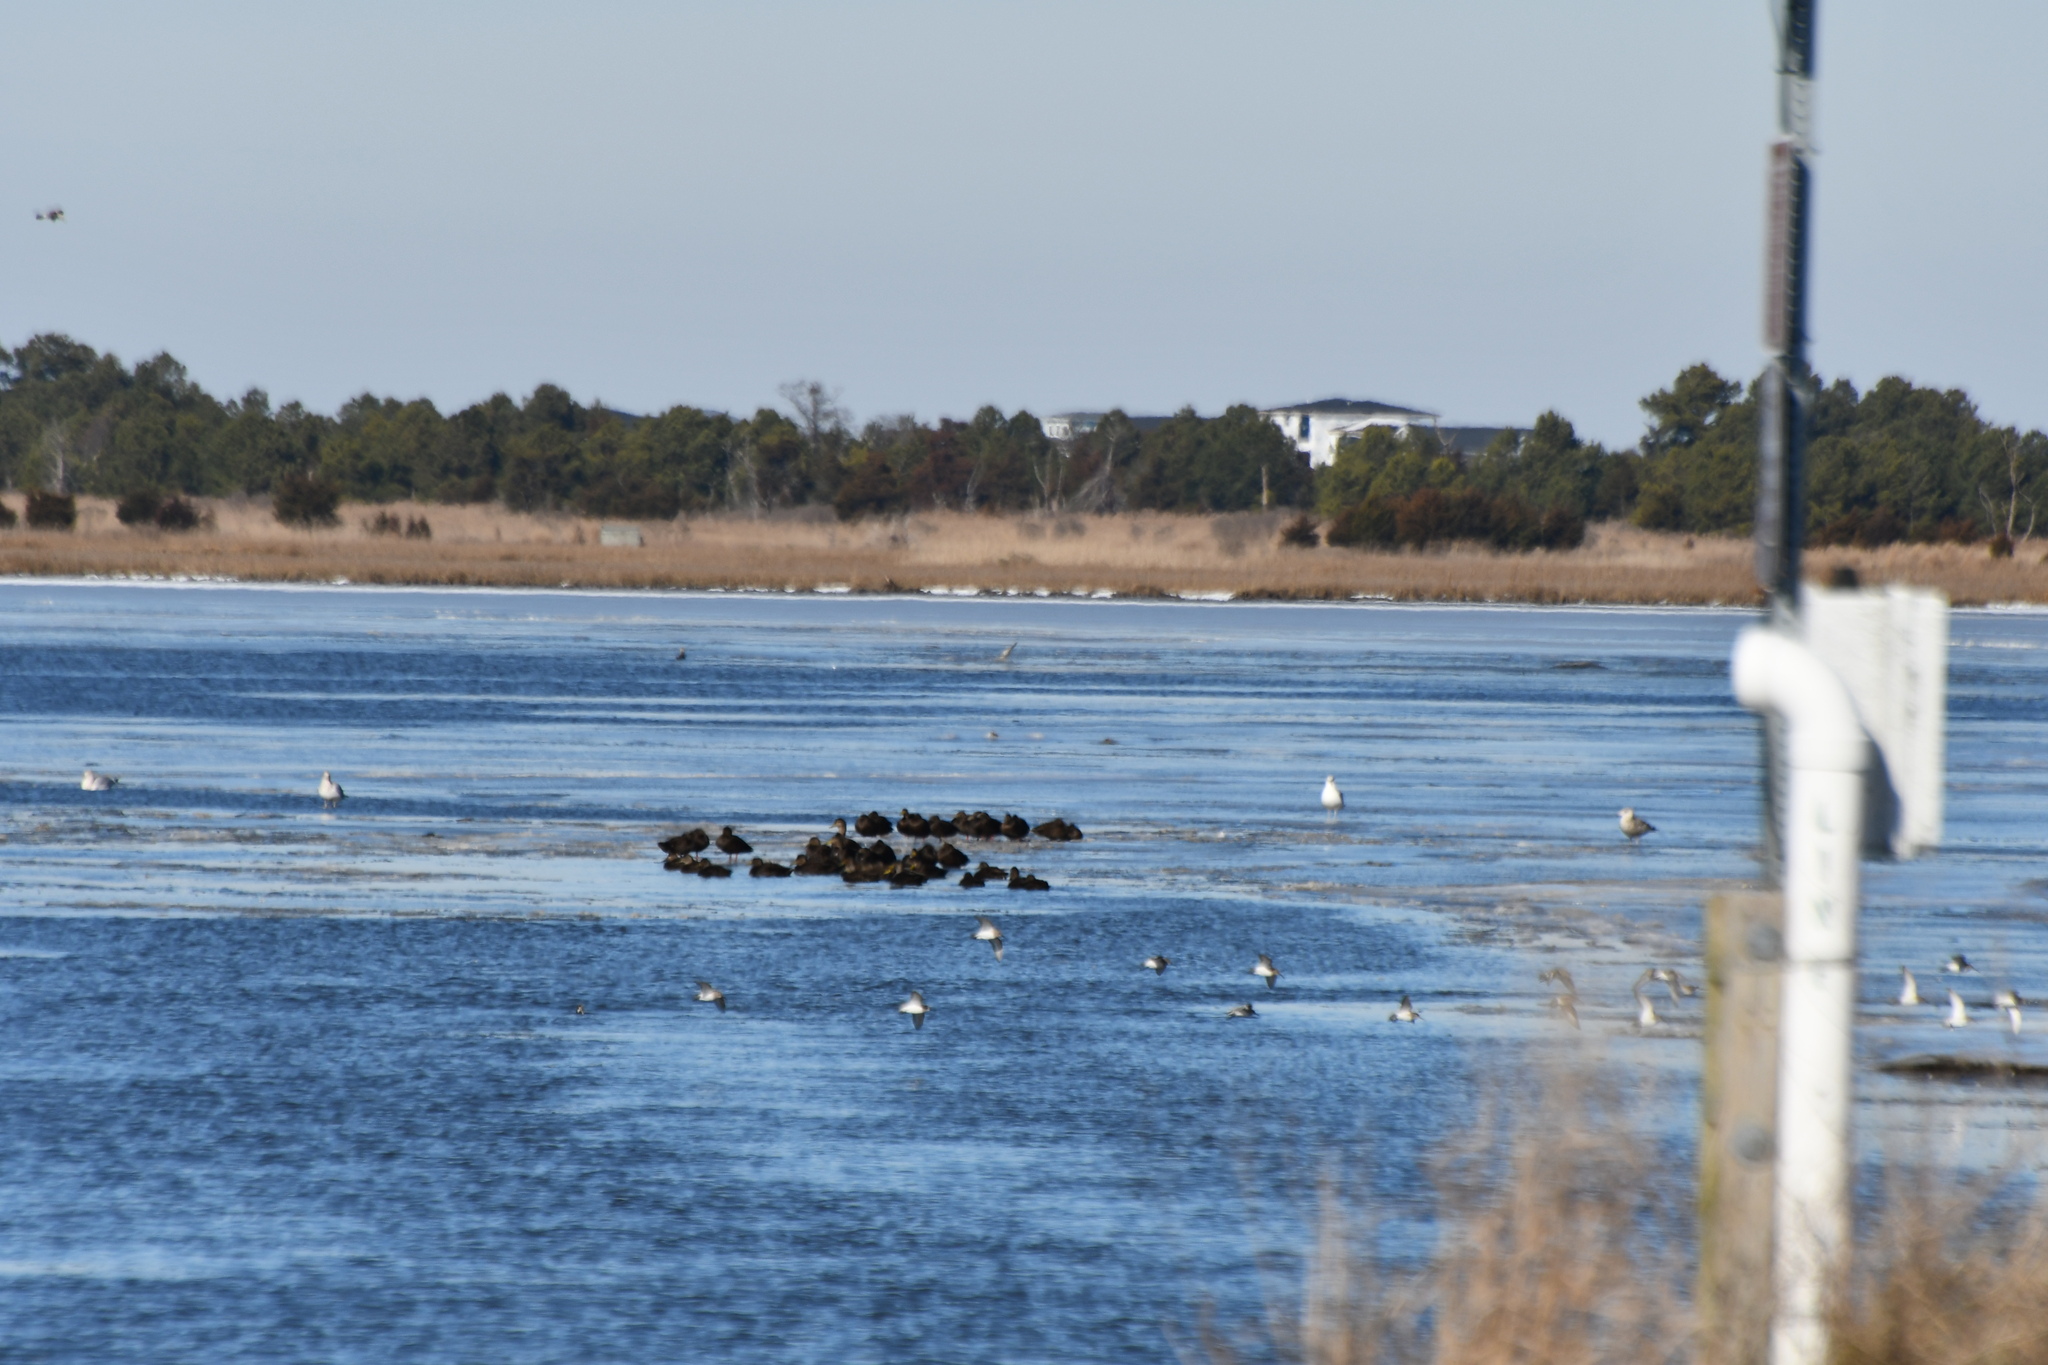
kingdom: Animalia
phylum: Chordata
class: Aves
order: Anseriformes
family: Anatidae
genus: Anas
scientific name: Anas rubripes
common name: American black duck
